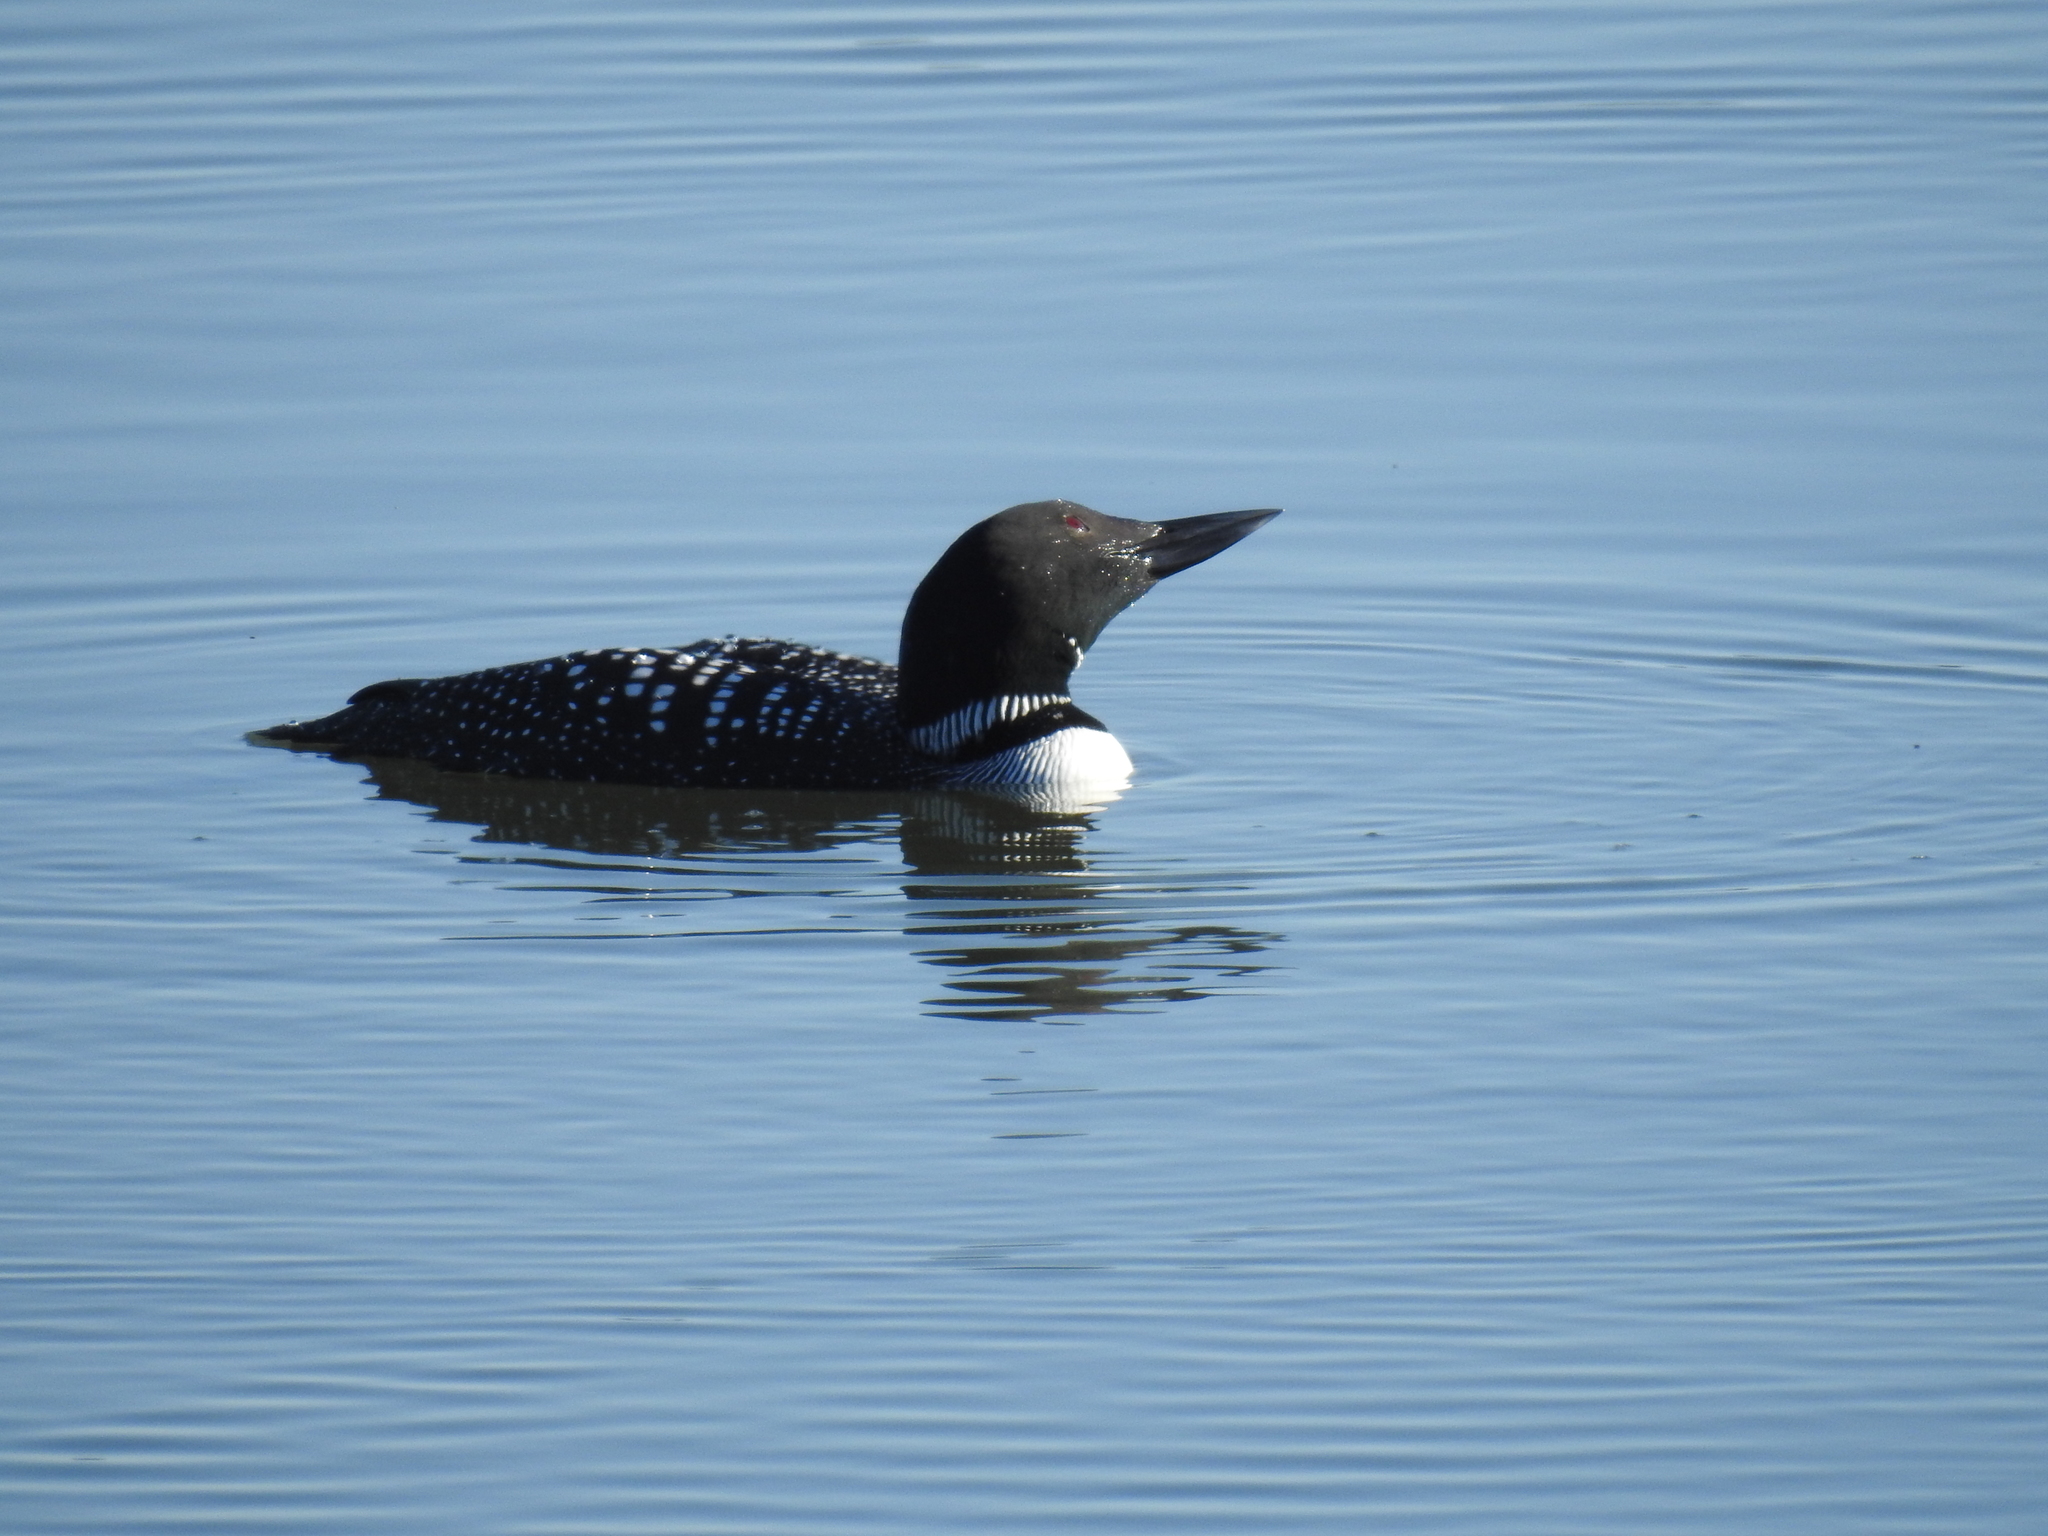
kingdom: Animalia
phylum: Chordata
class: Aves
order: Gaviiformes
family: Gaviidae
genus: Gavia
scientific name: Gavia immer
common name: Common loon
